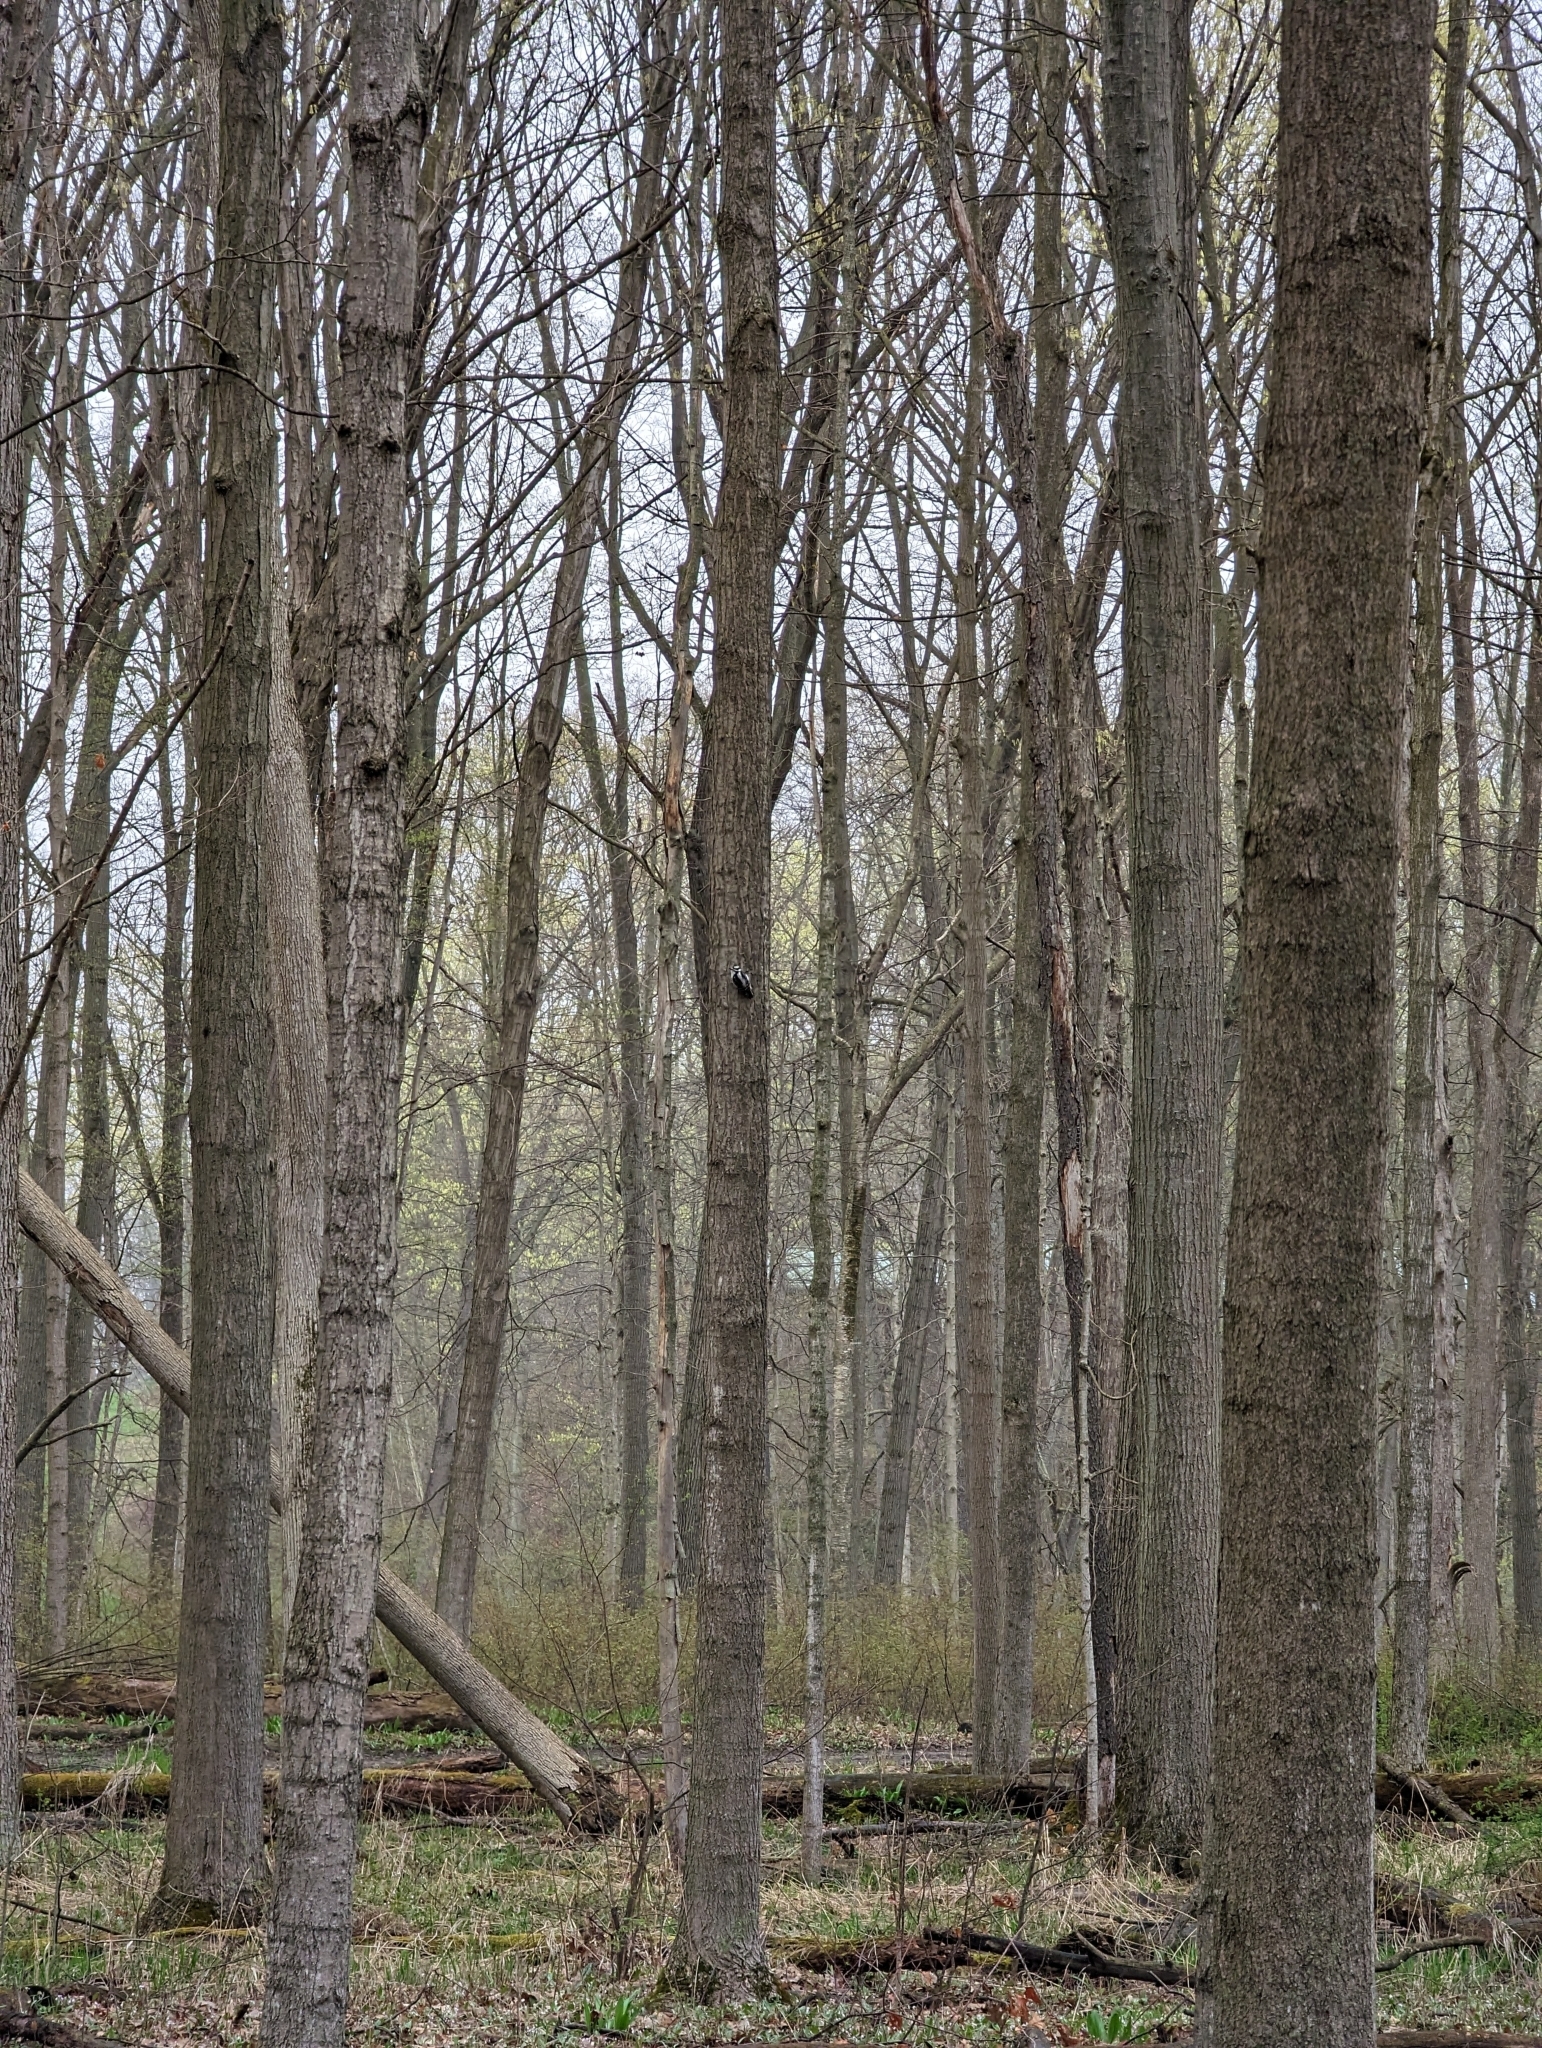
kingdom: Animalia
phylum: Chordata
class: Aves
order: Piciformes
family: Picidae
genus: Dryobates
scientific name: Dryobates pubescens
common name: Downy woodpecker
